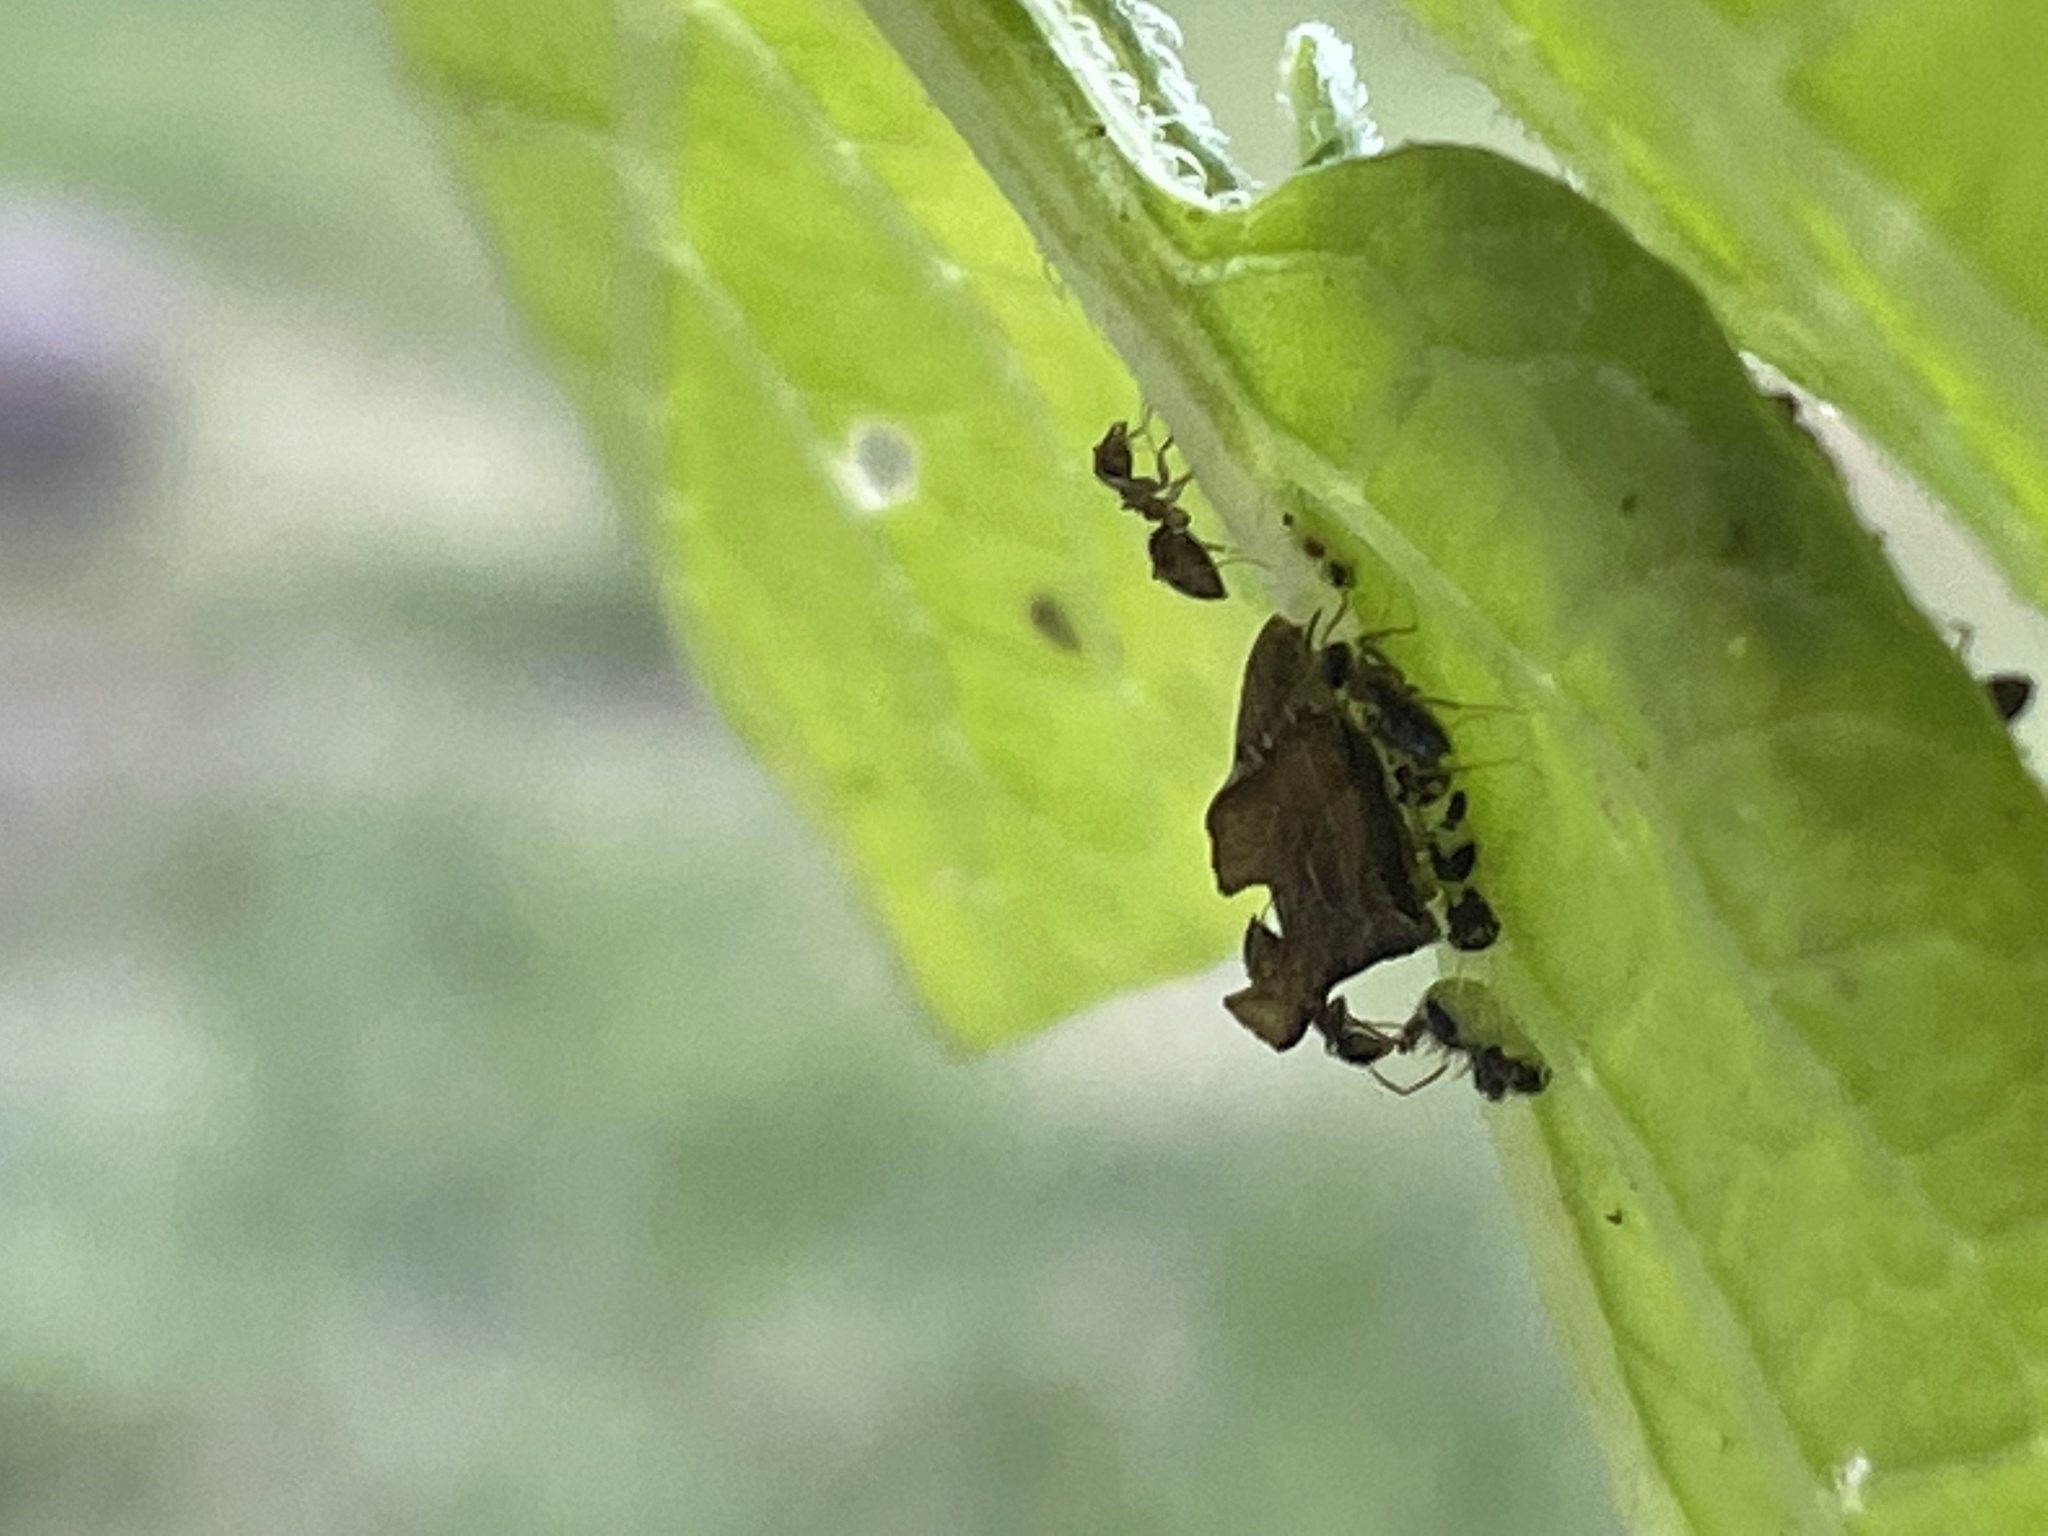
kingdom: Animalia
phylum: Arthropoda
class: Insecta
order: Hemiptera
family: Membracidae
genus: Entylia
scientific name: Entylia carinata
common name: Keeled treehopper
